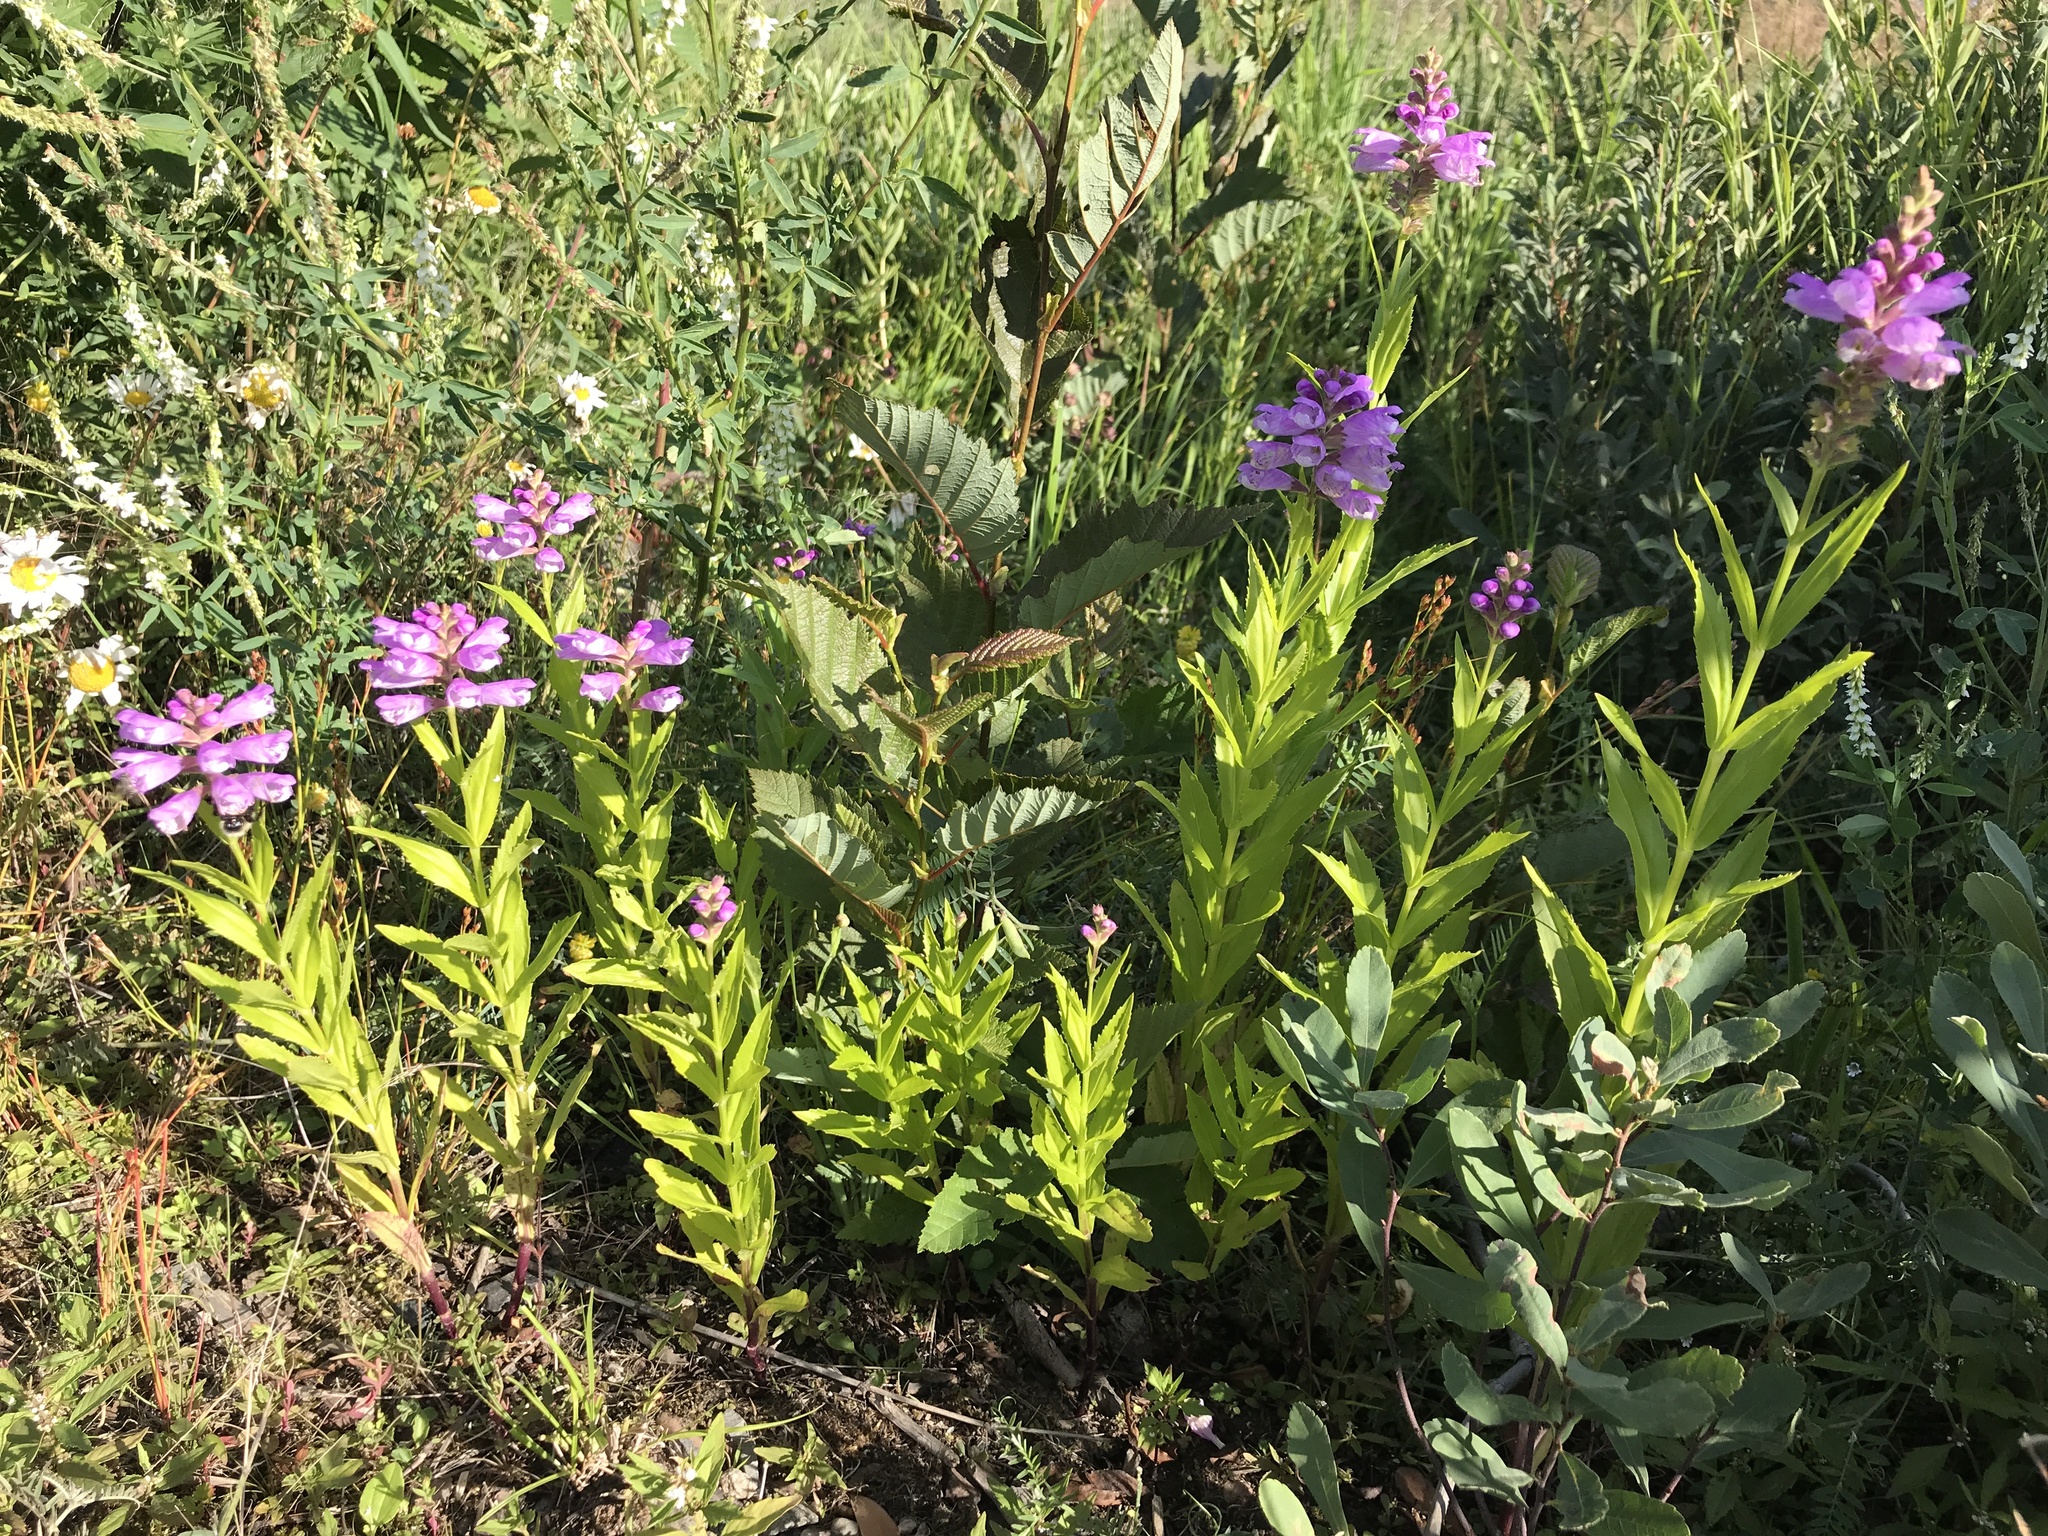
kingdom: Plantae
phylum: Tracheophyta
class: Magnoliopsida
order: Lamiales
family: Lamiaceae
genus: Physostegia
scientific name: Physostegia virginiana
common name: Obedient-plant
